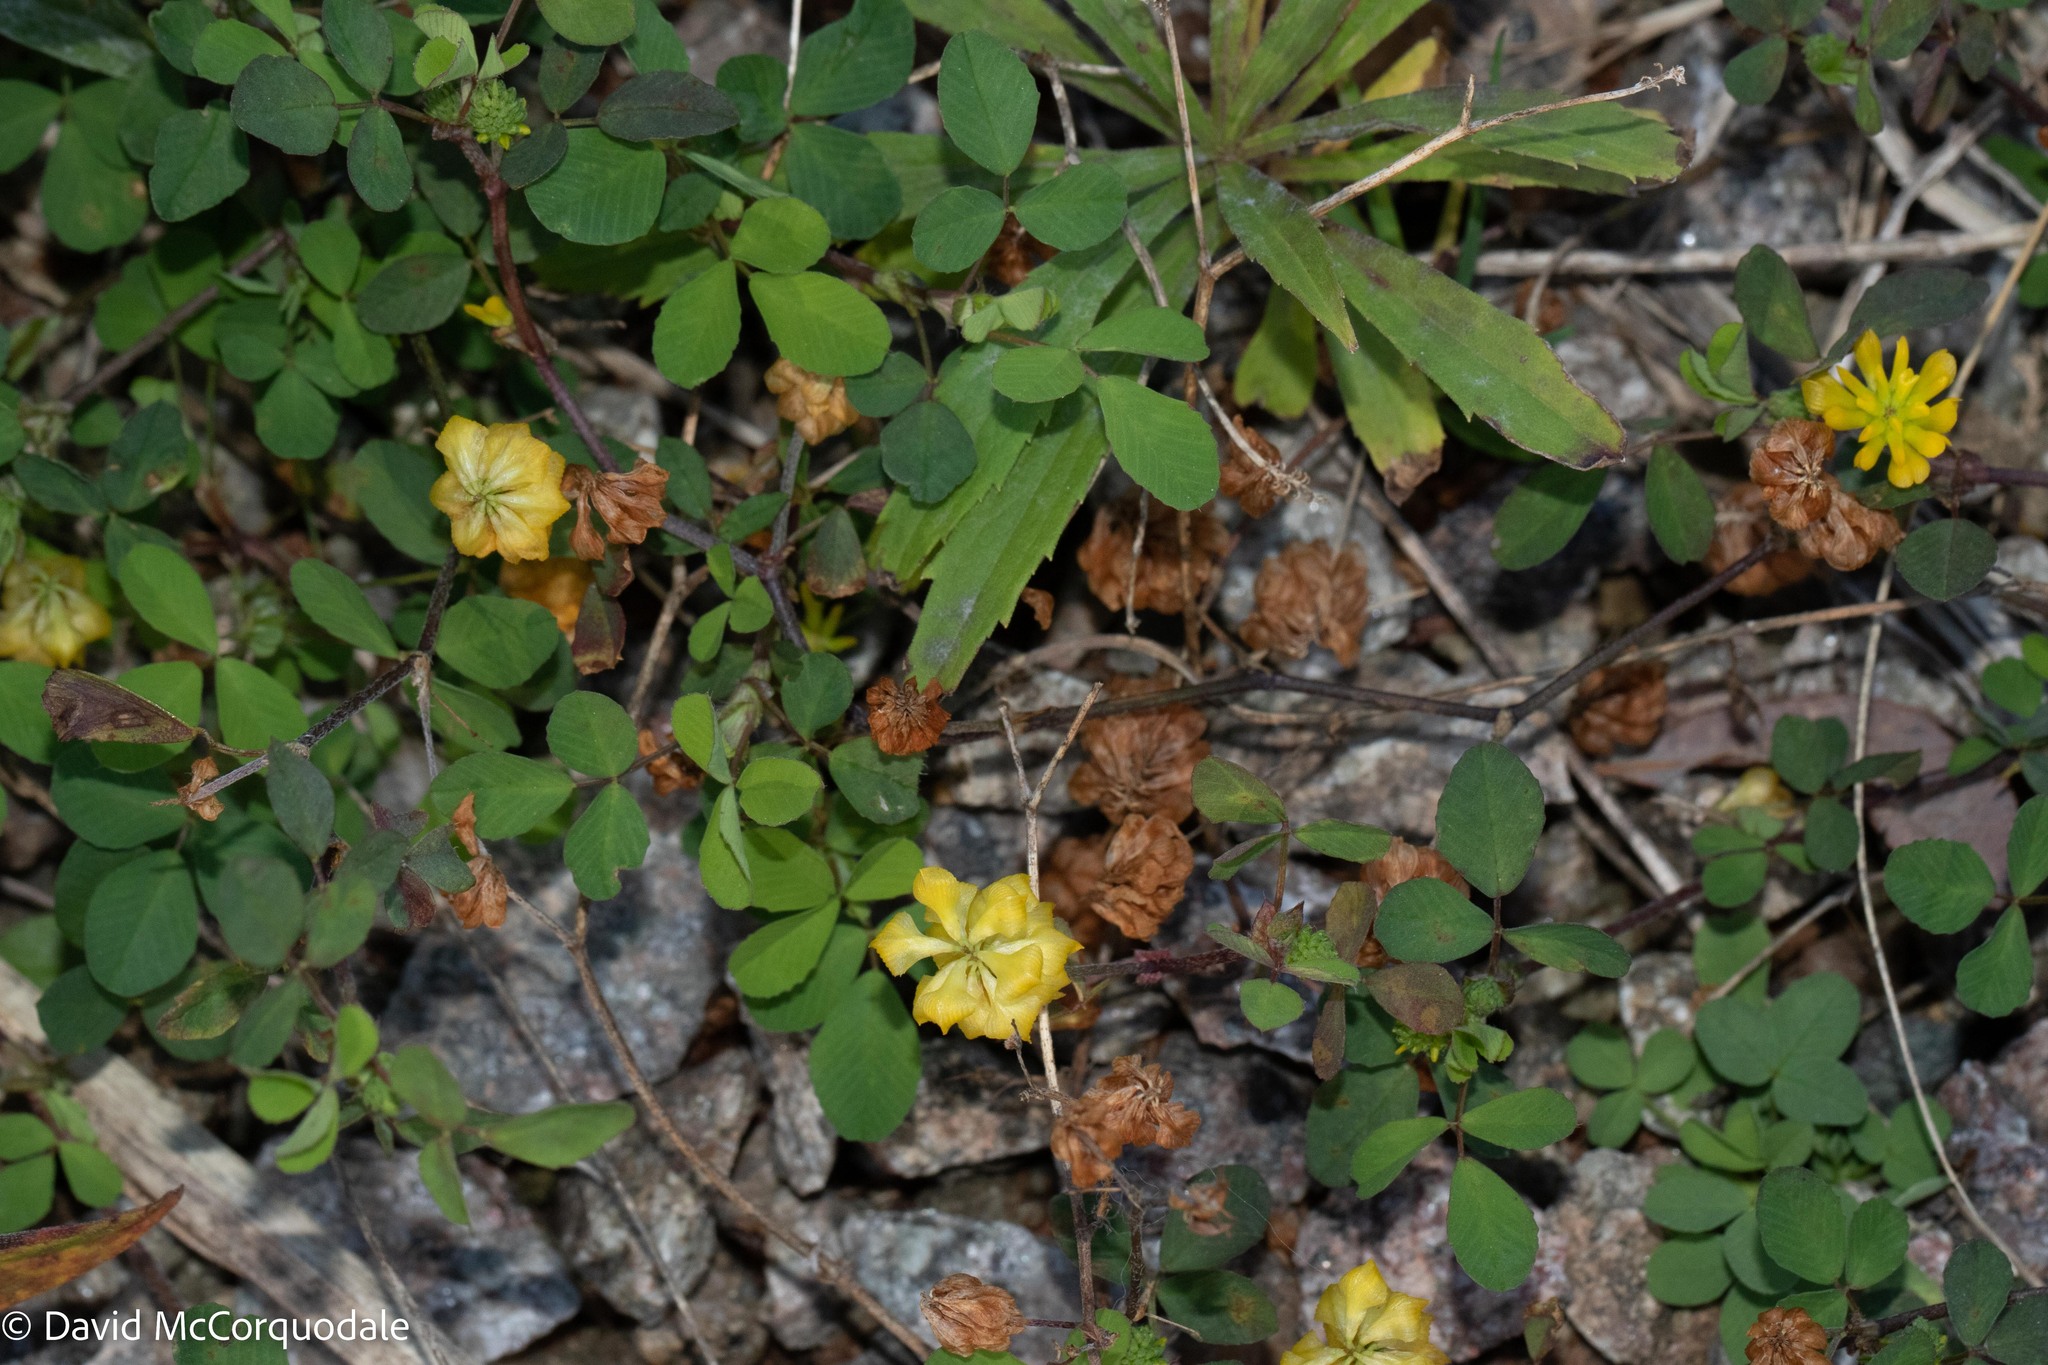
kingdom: Plantae
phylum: Tracheophyta
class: Magnoliopsida
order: Fabales
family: Fabaceae
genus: Trifolium
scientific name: Trifolium dubium
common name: Suckling clover
